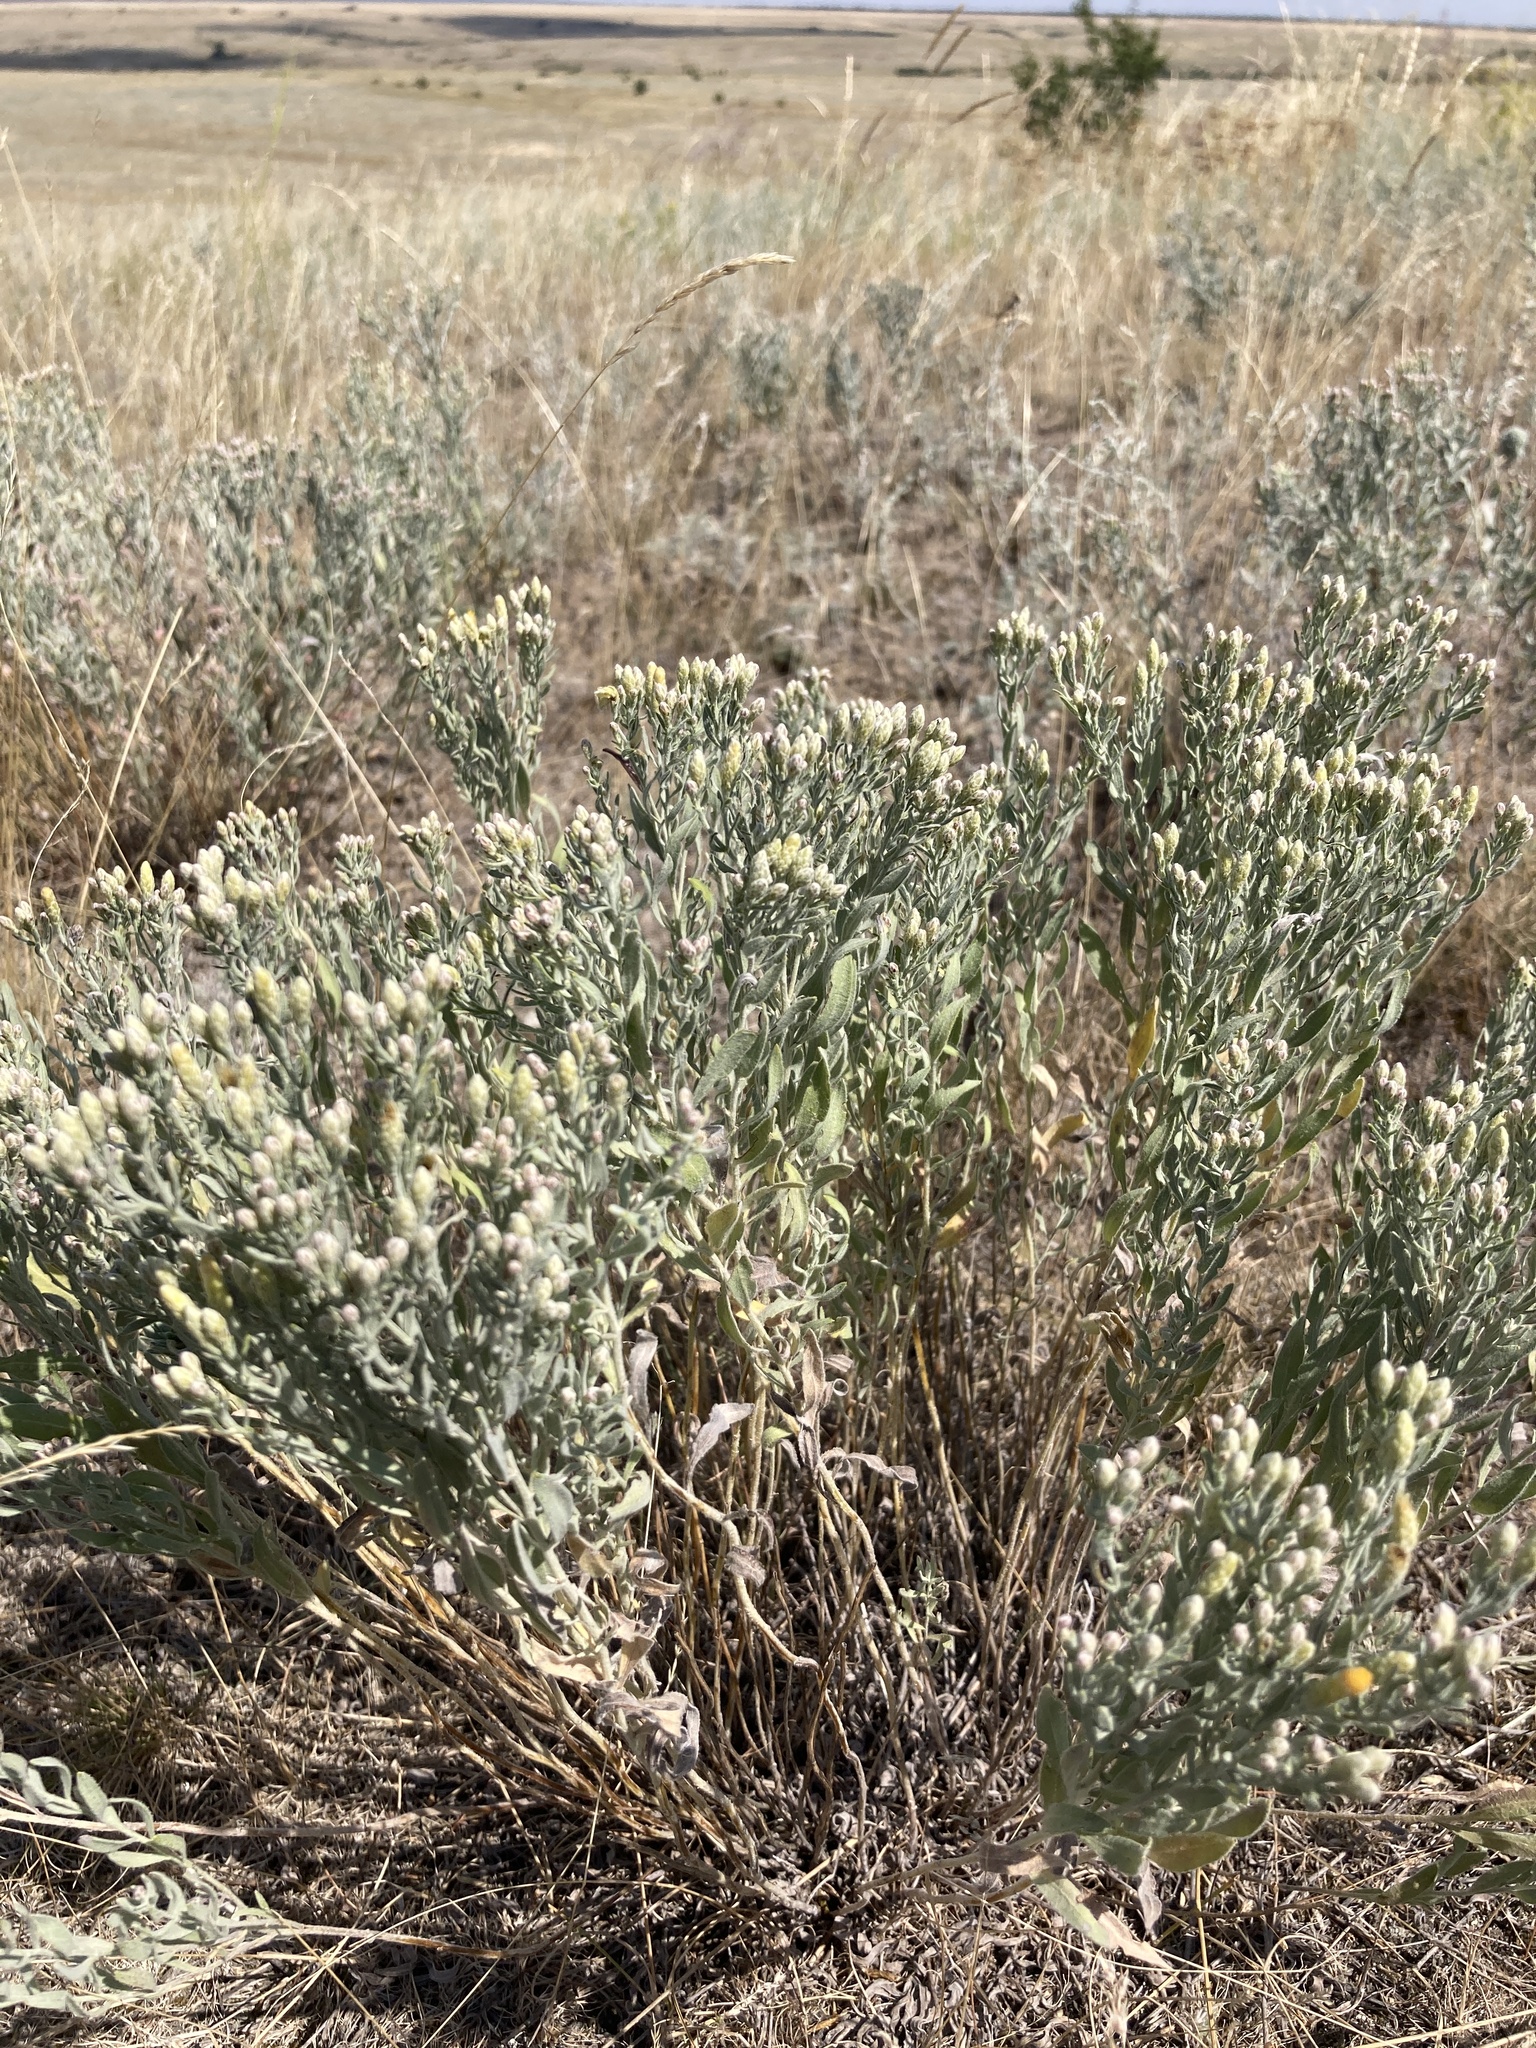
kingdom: Plantae
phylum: Tracheophyta
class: Magnoliopsida
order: Asterales
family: Asteraceae
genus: Galatella
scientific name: Galatella villosa
